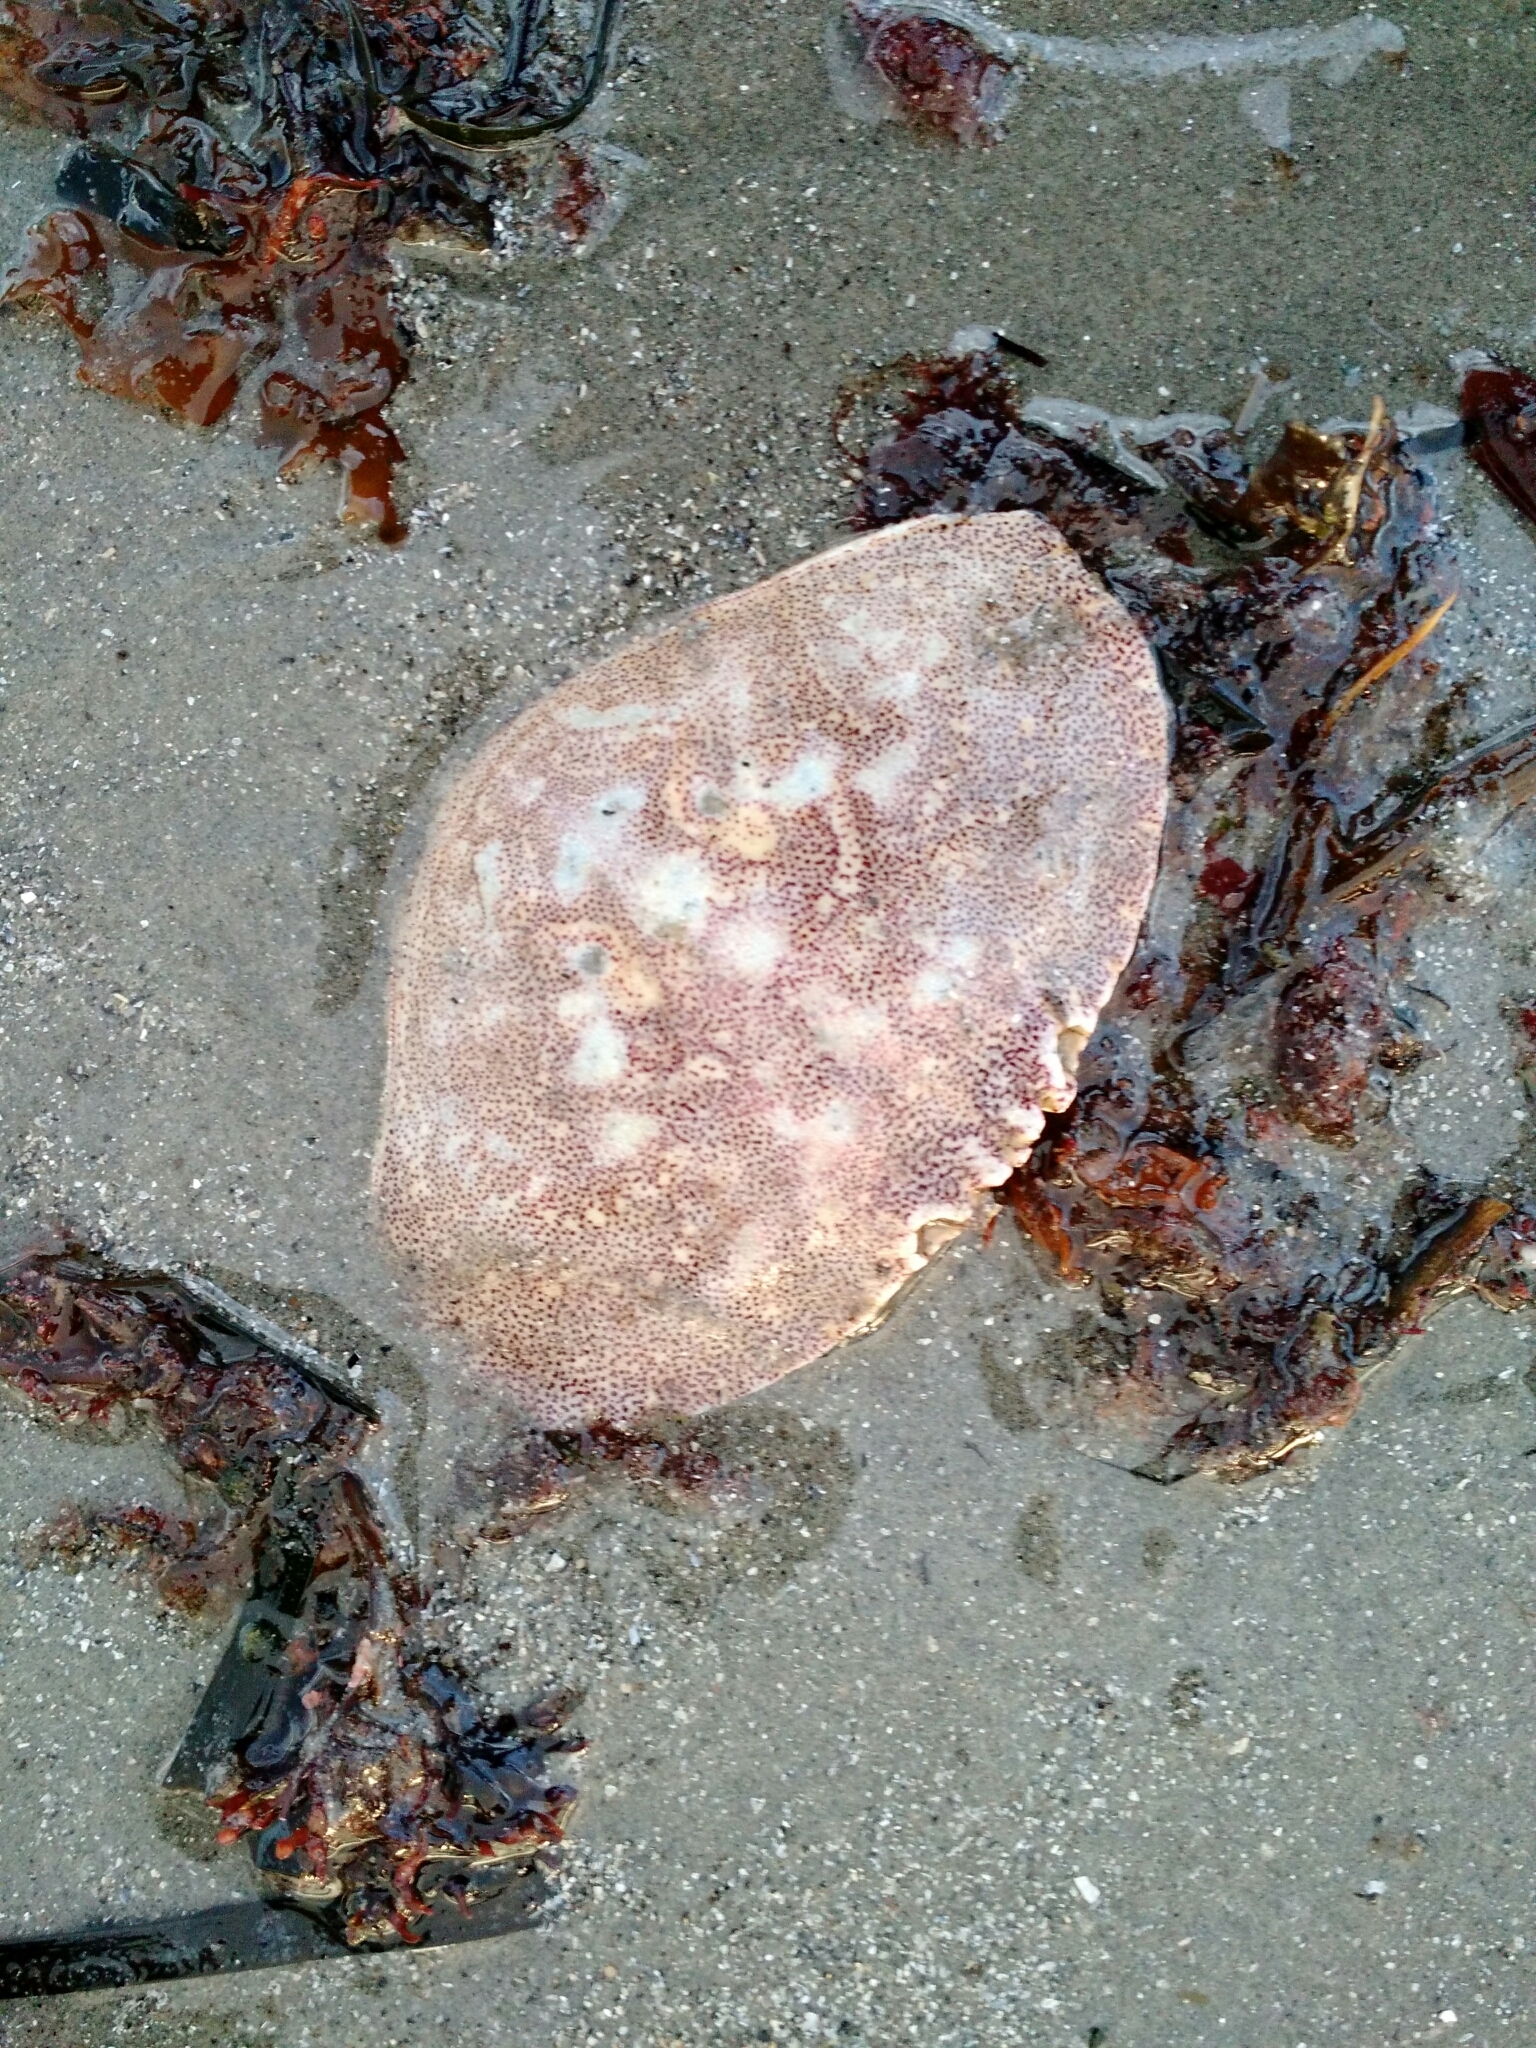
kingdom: Animalia
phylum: Arthropoda
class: Malacostraca
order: Decapoda
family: Cancridae
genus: Cancer
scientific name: Cancer irroratus
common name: Atlantic rock crab
